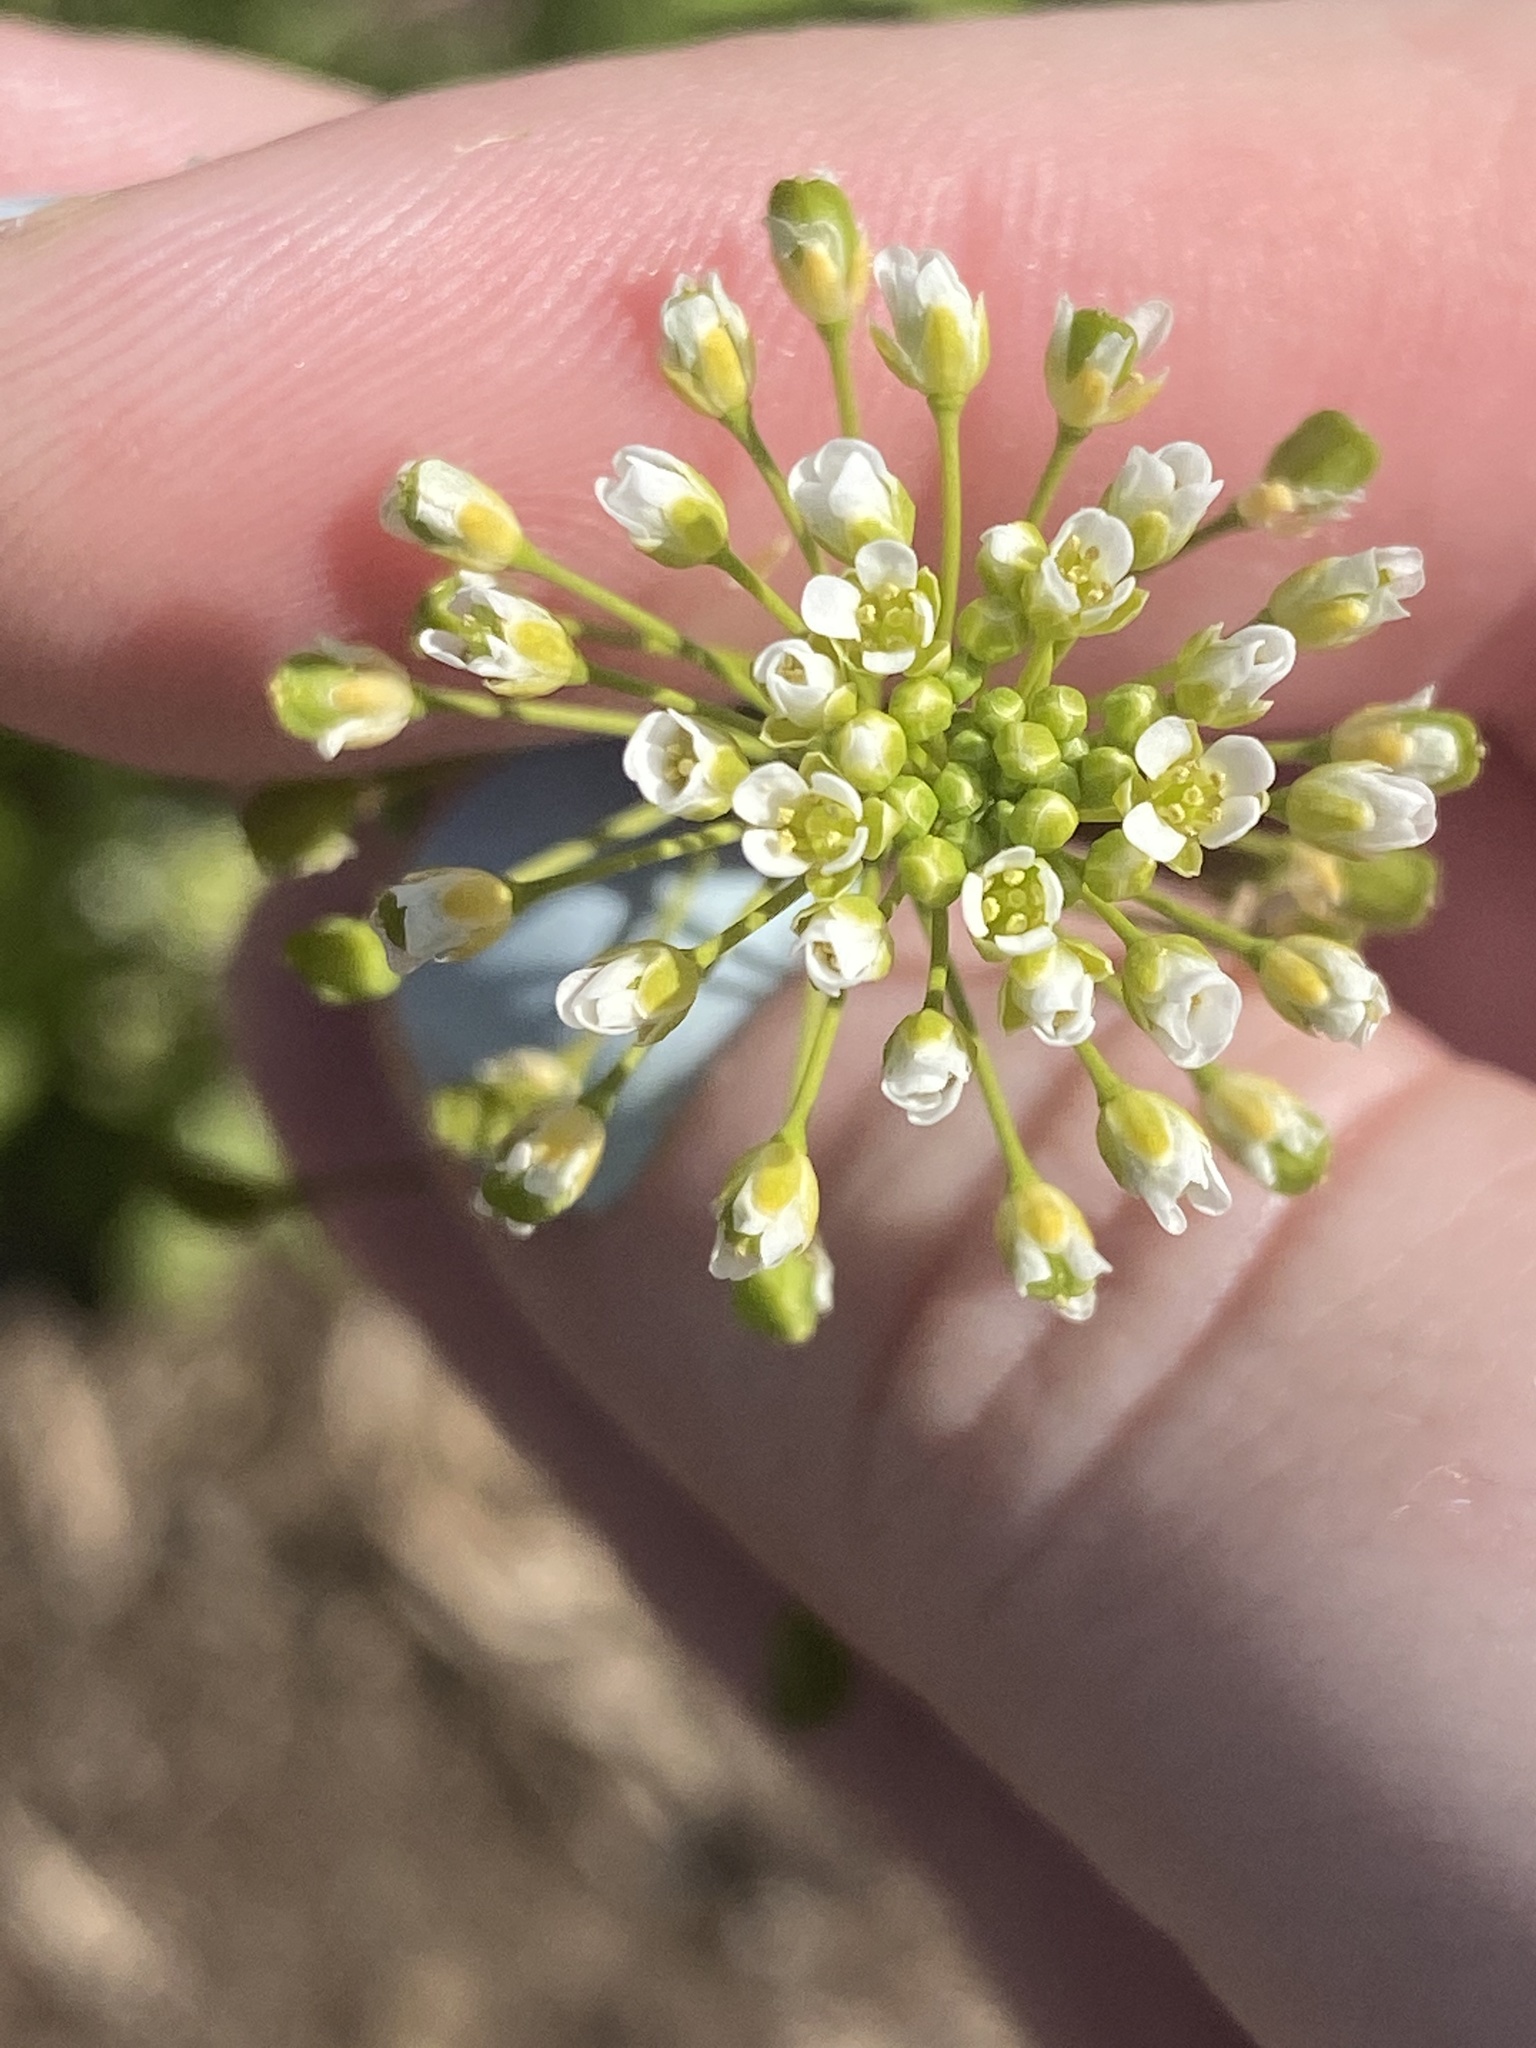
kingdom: Plantae
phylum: Tracheophyta
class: Magnoliopsida
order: Brassicales
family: Brassicaceae
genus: Mummenhoffia
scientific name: Mummenhoffia alliacea
